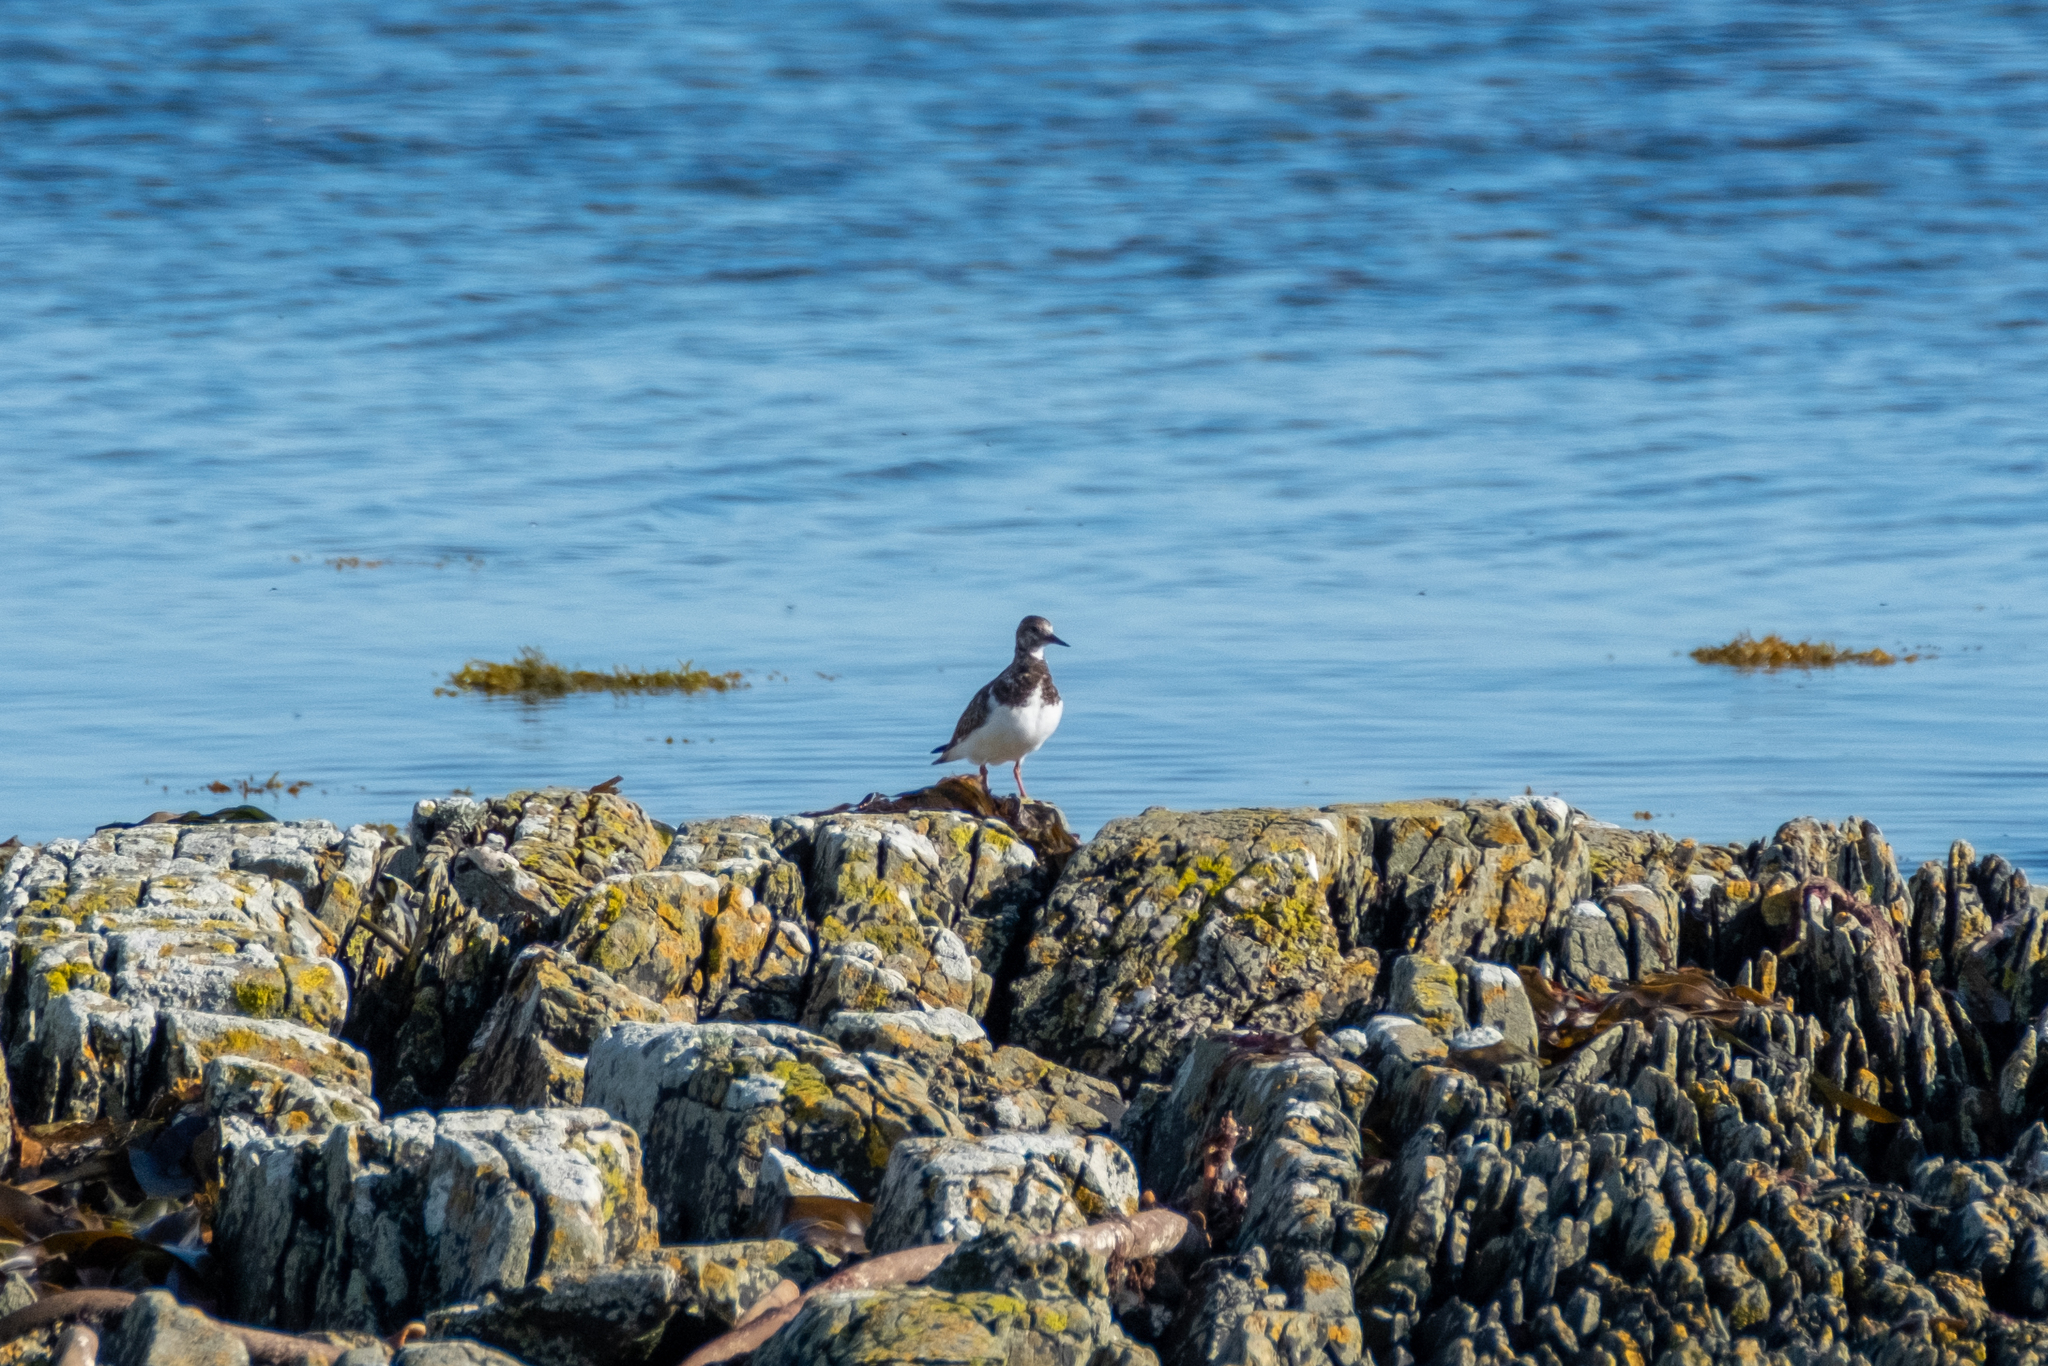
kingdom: Animalia
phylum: Chordata
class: Aves
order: Charadriiformes
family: Scolopacidae
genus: Arenaria
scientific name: Arenaria interpres
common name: Ruddy turnstone
